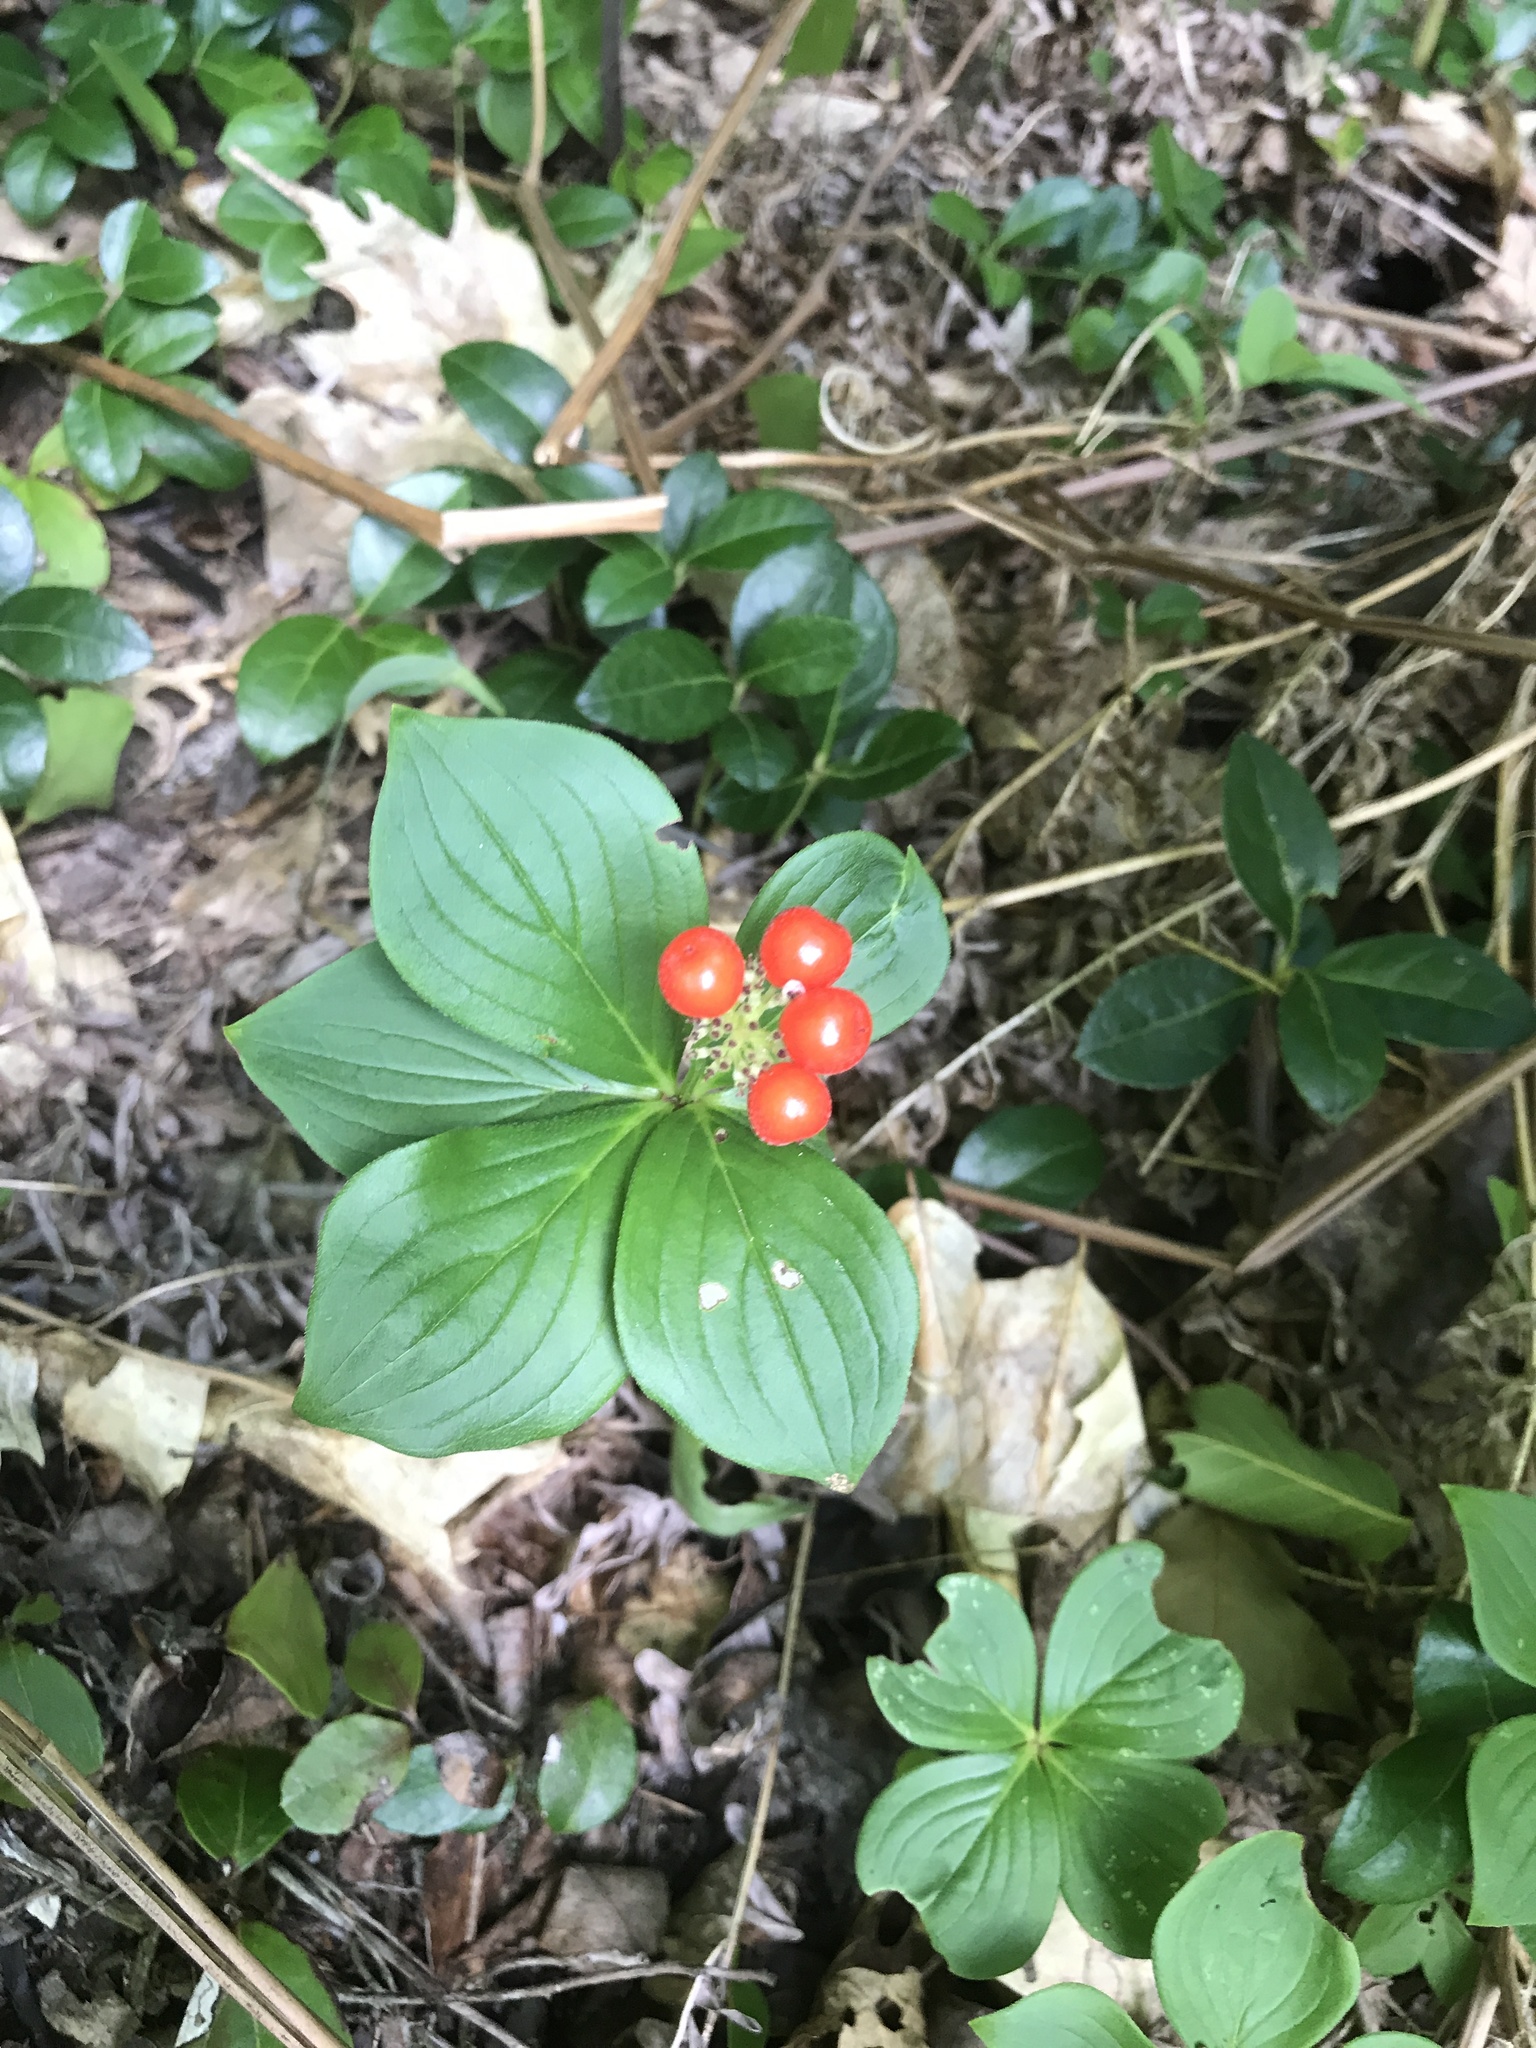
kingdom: Plantae
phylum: Tracheophyta
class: Magnoliopsida
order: Cornales
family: Cornaceae
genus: Cornus
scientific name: Cornus canadensis
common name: Creeping dogwood
